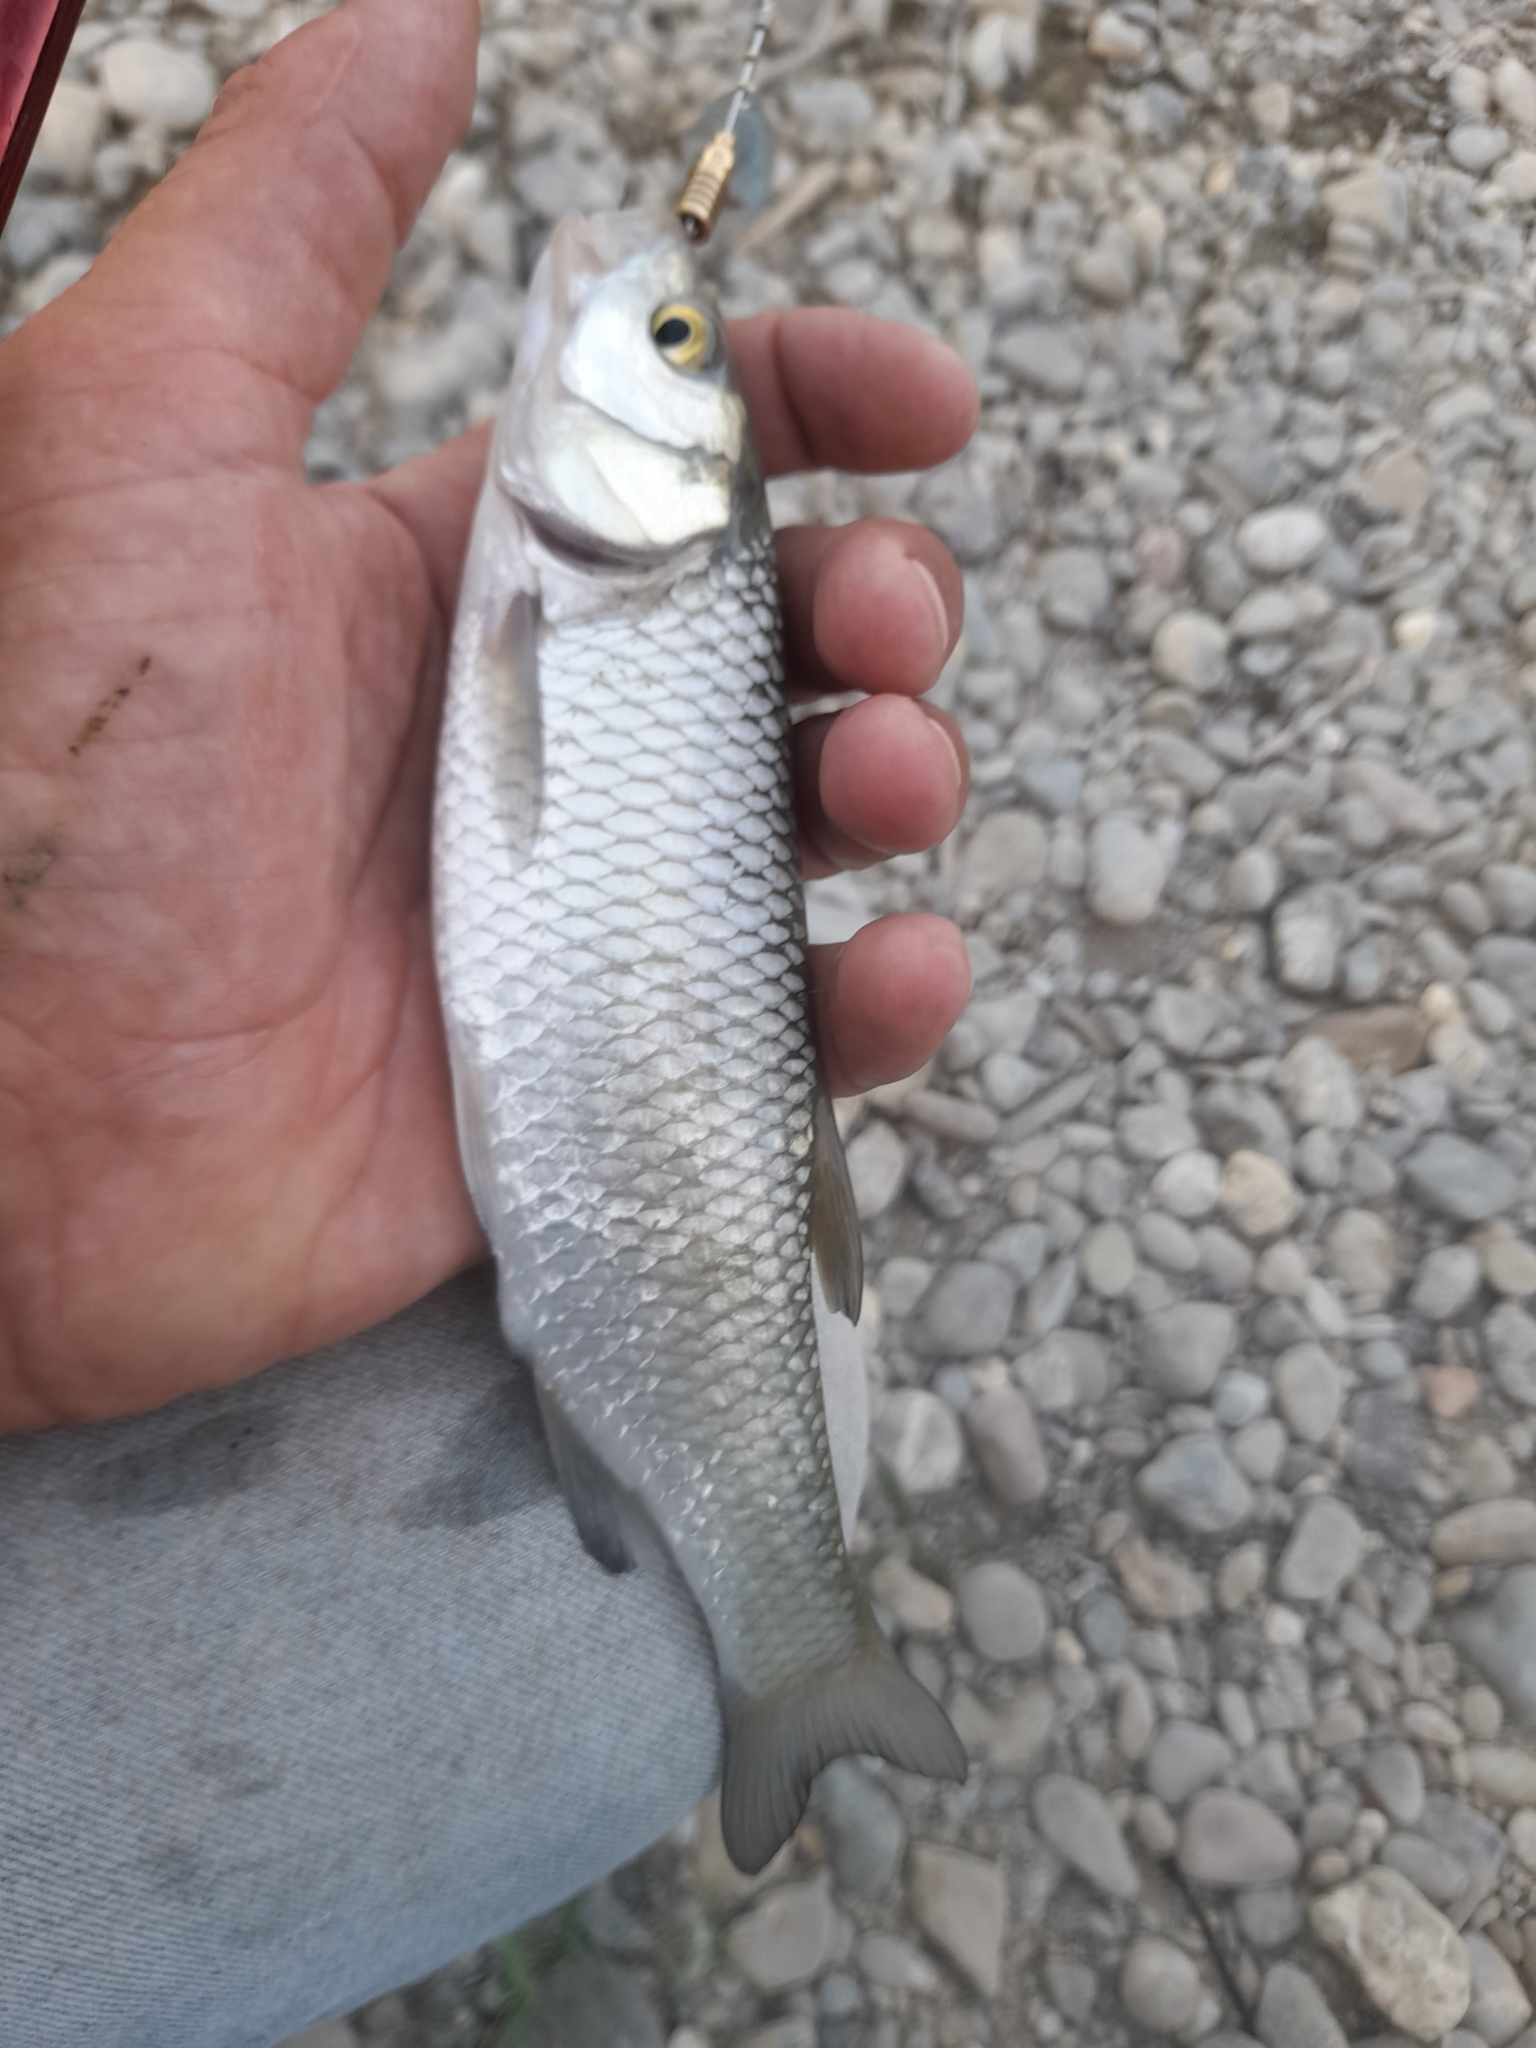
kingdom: Animalia
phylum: Chordata
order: Cypriniformes
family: Cyprinidae
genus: Squalius
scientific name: Squalius squalus
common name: Italian chub
